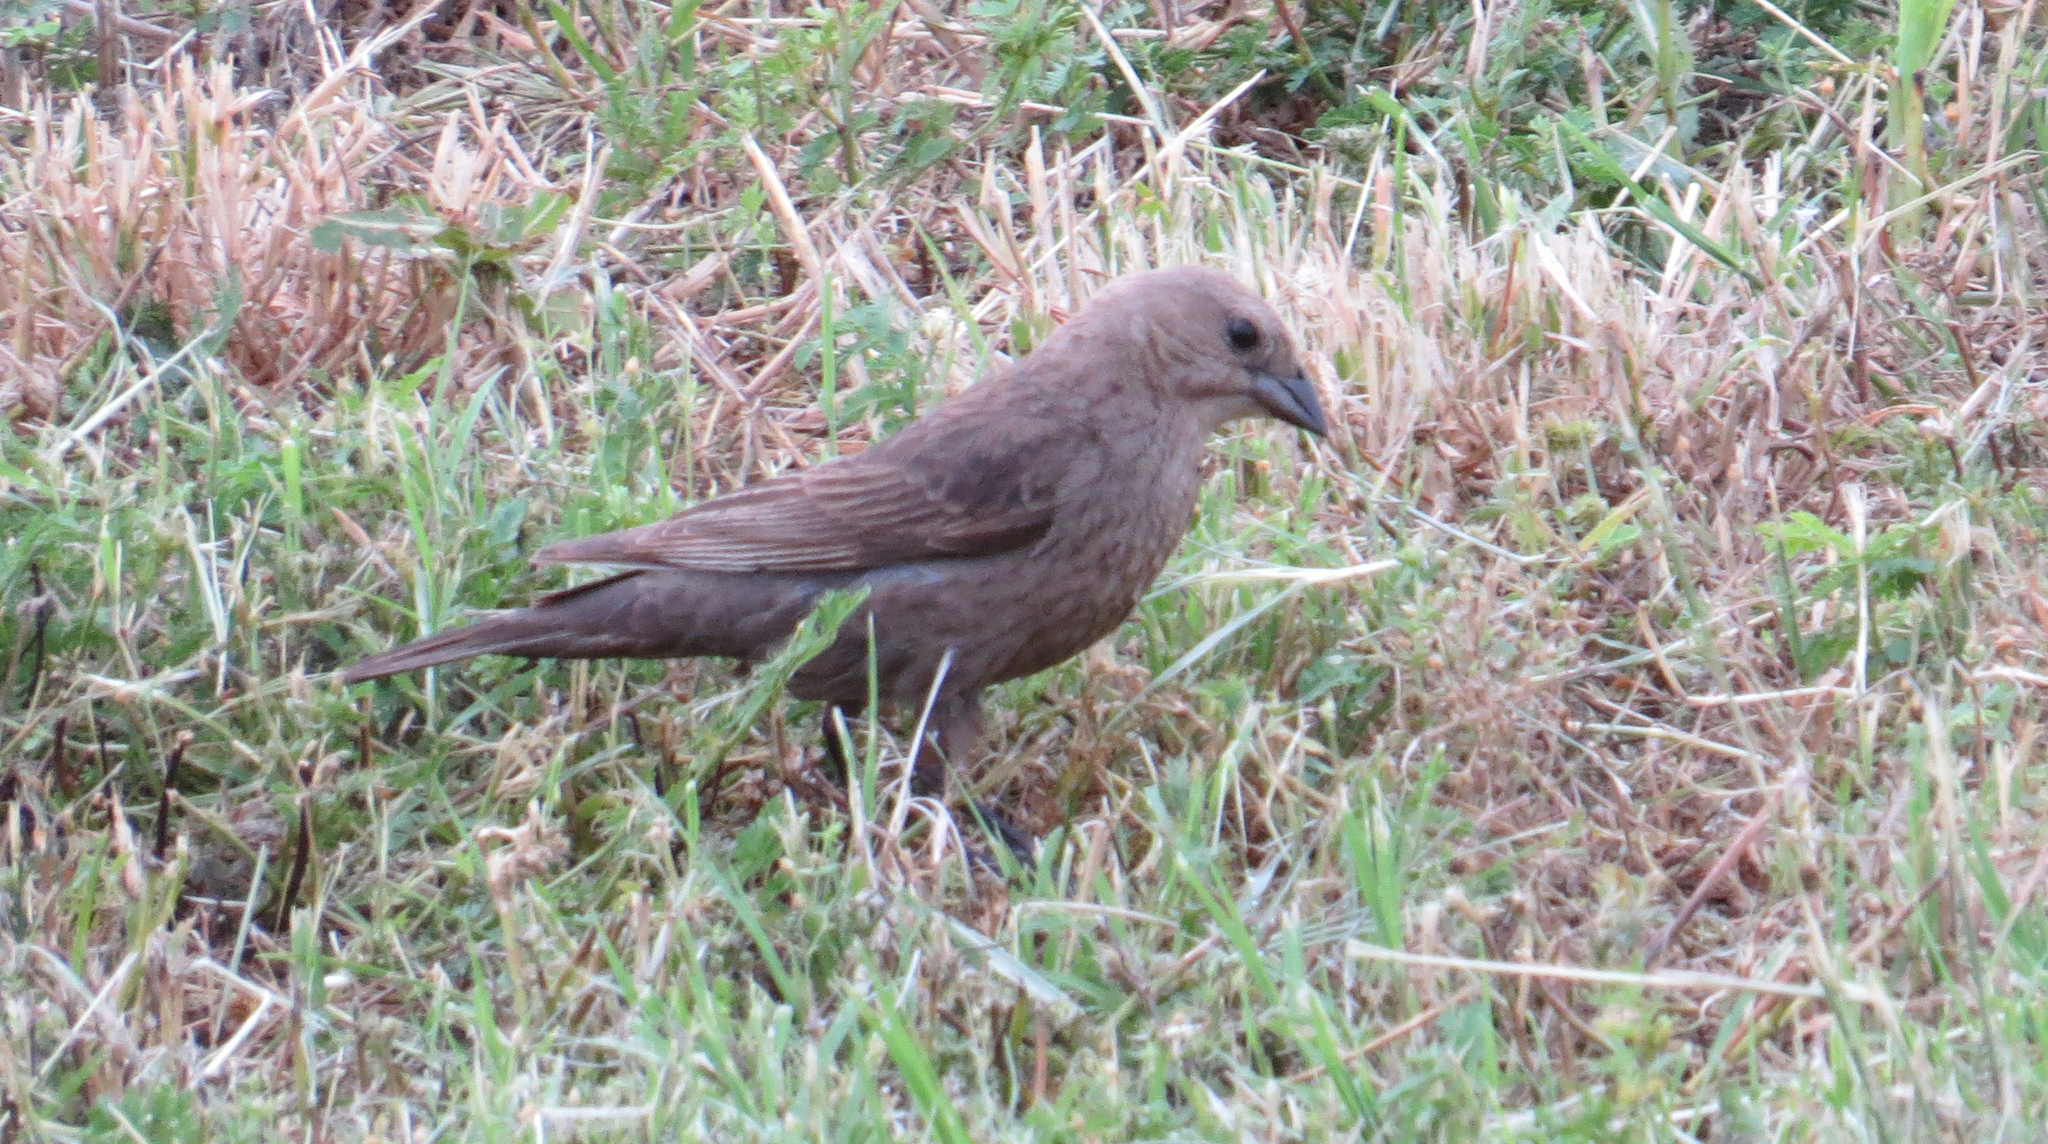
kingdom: Animalia
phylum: Chordata
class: Aves
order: Passeriformes
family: Icteridae
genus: Molothrus
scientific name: Molothrus ater
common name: Brown-headed cowbird
